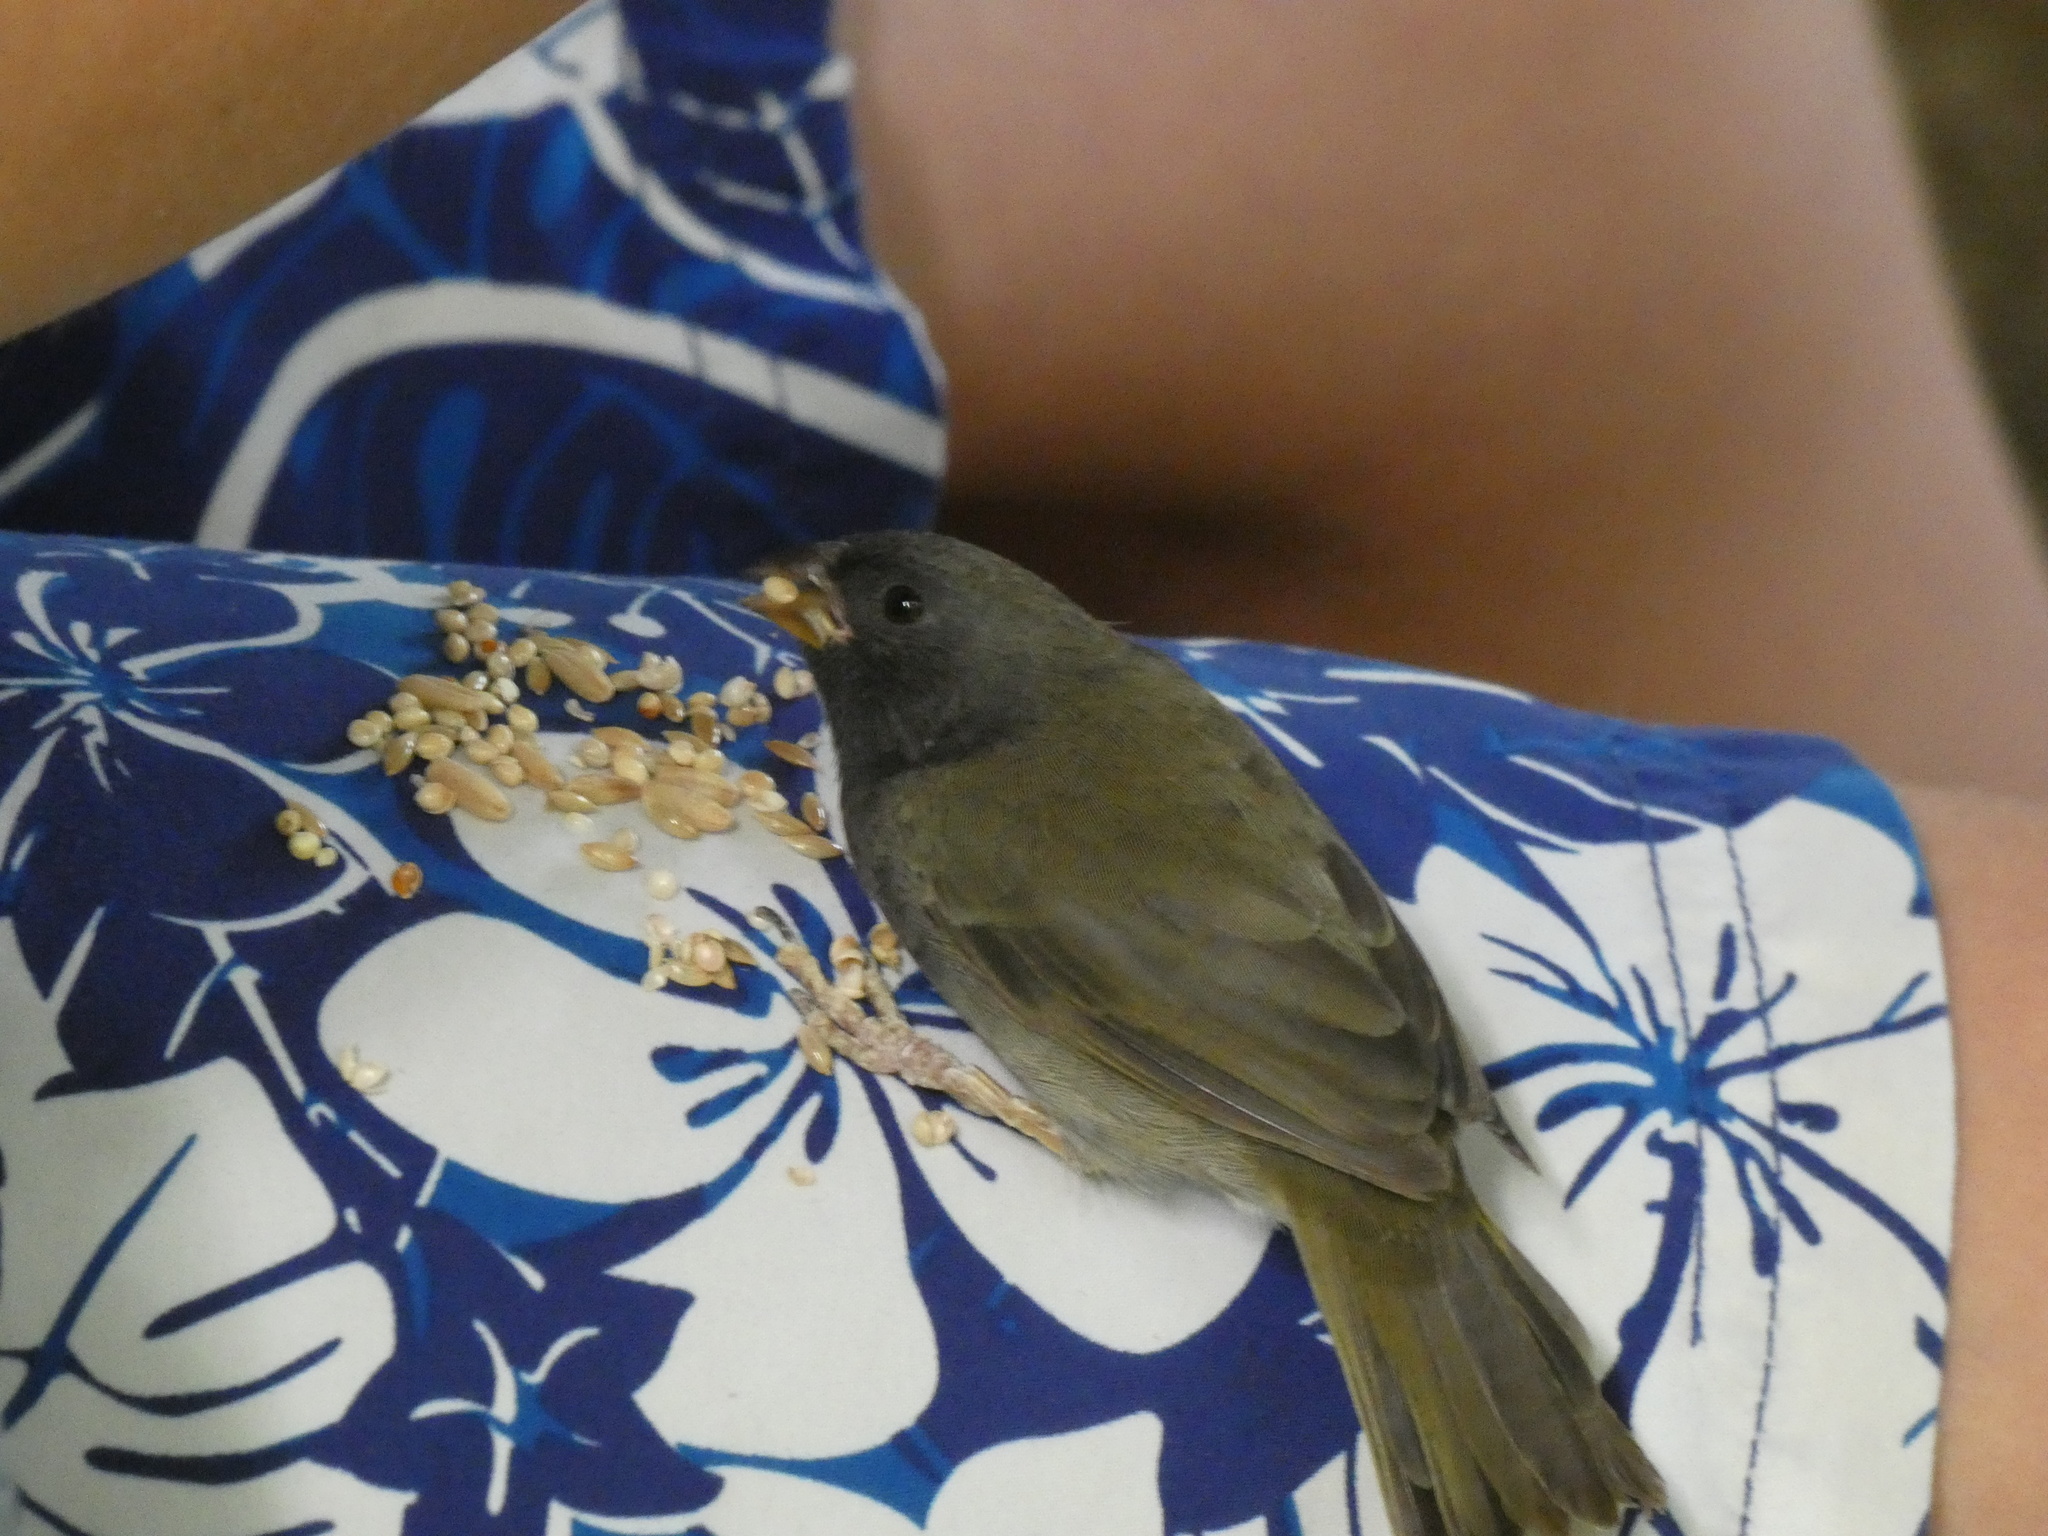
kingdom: Animalia
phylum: Chordata
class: Aves
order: Passeriformes
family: Thraupidae
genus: Melanospiza
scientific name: Melanospiza bicolor
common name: Black-faced grassquit
